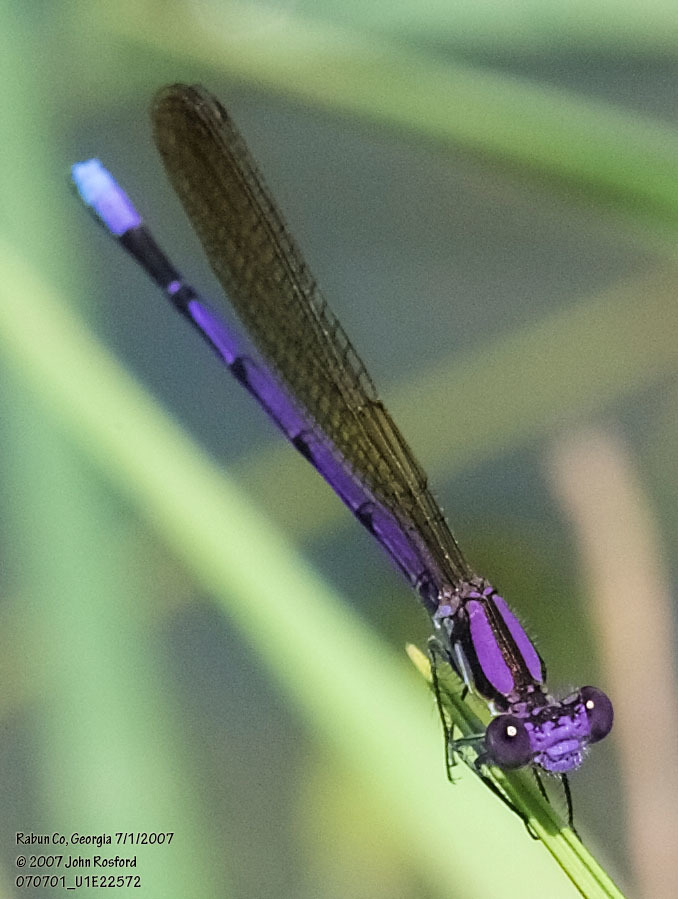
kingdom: Animalia
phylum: Arthropoda
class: Insecta
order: Odonata
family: Coenagrionidae
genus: Argia
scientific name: Argia fumipennis
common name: Variable dancer
